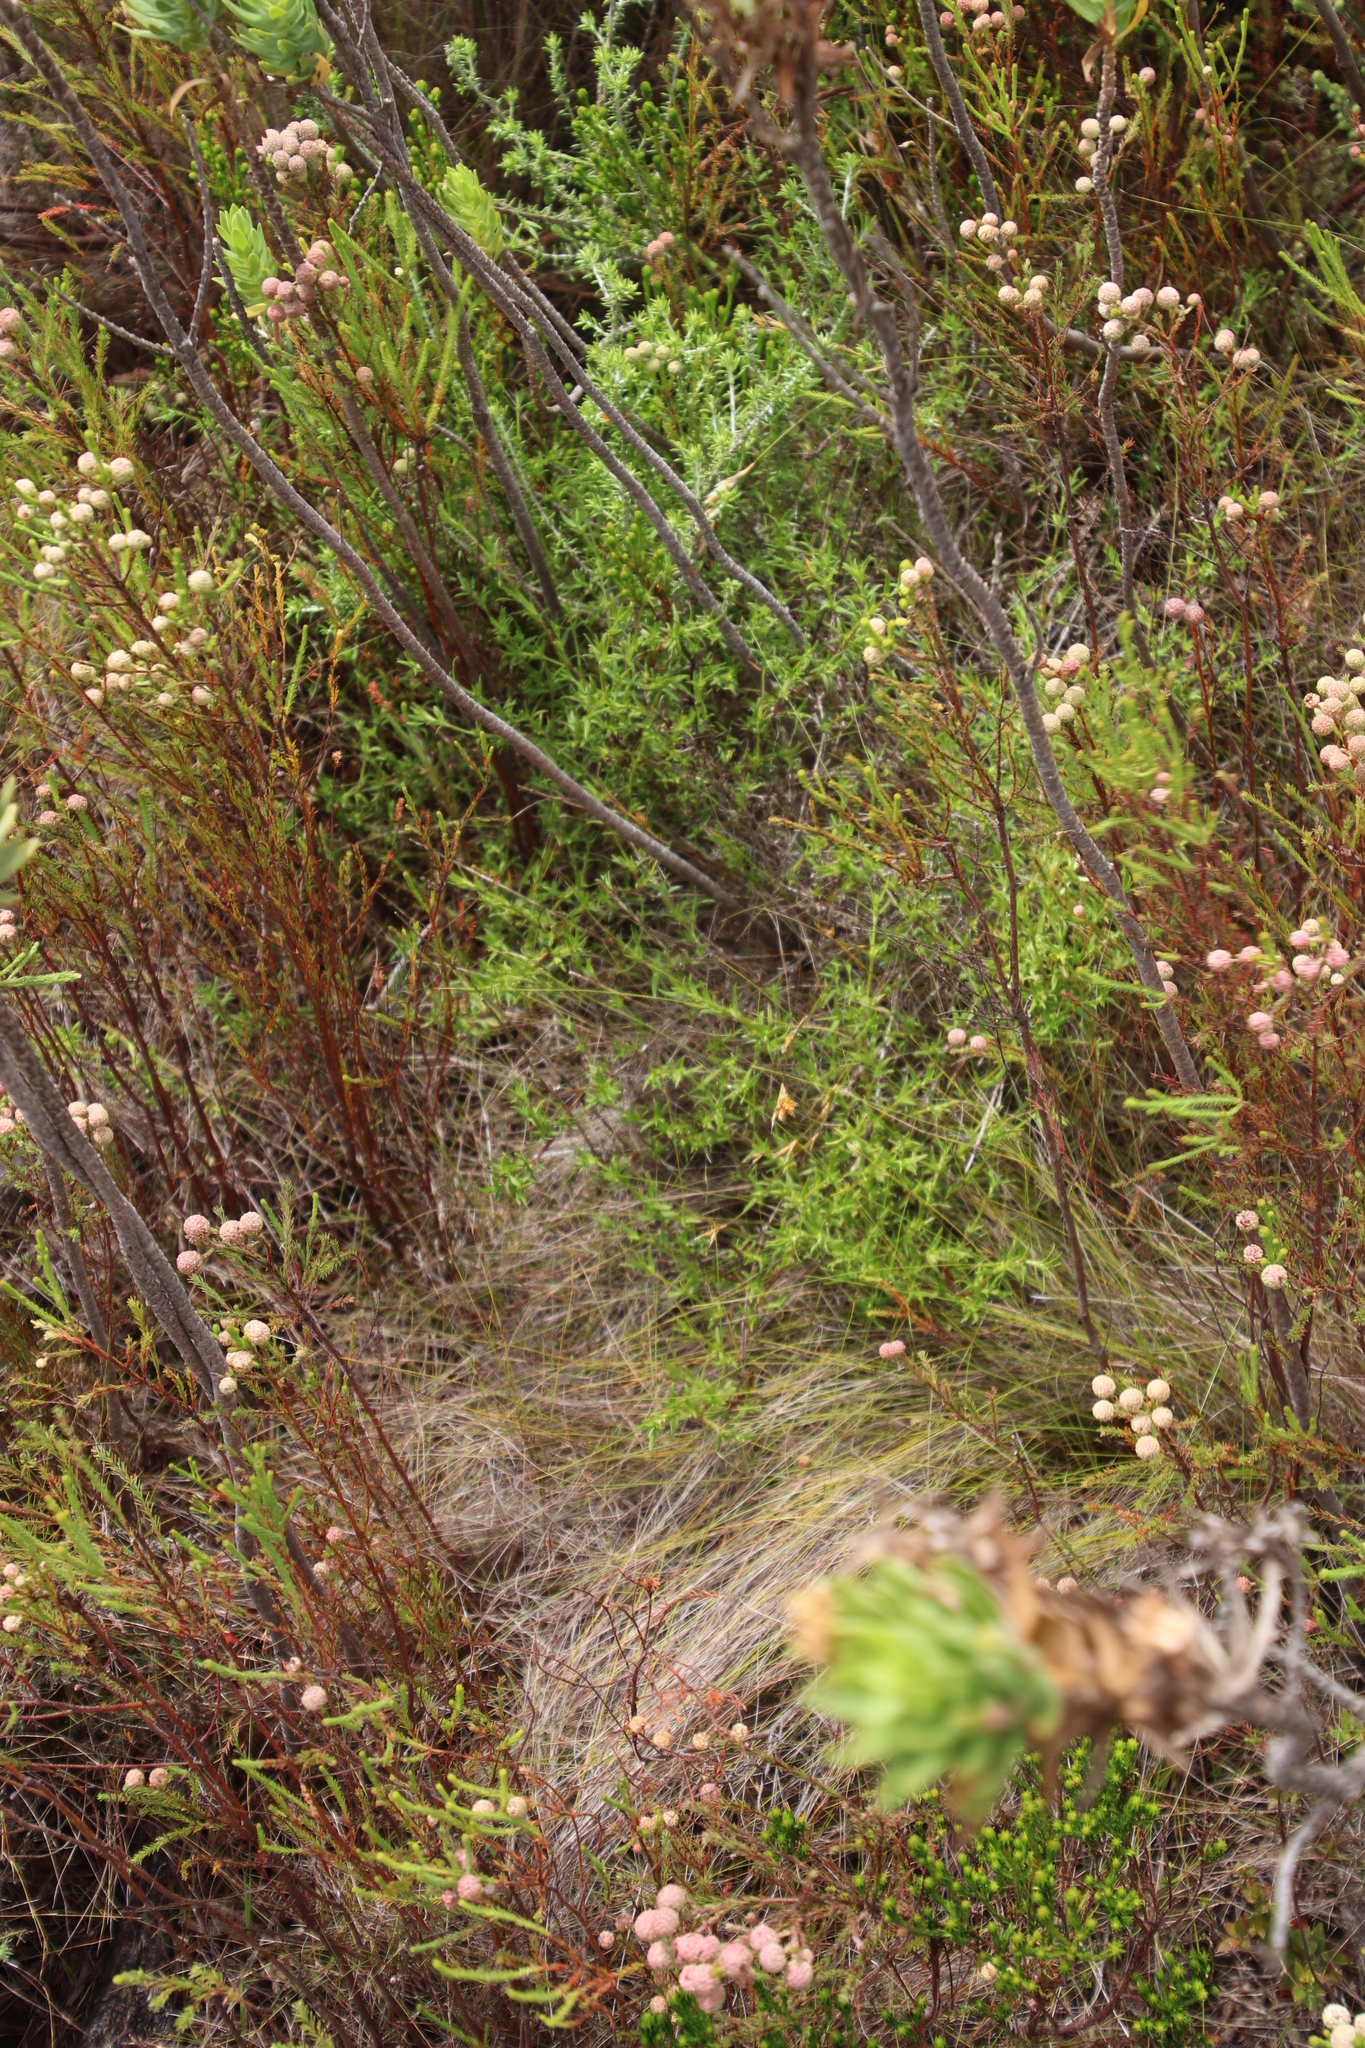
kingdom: Plantae
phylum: Tracheophyta
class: Magnoliopsida
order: Gentianales
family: Rubiaceae
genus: Carpacoce
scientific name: Carpacoce spermacocea
